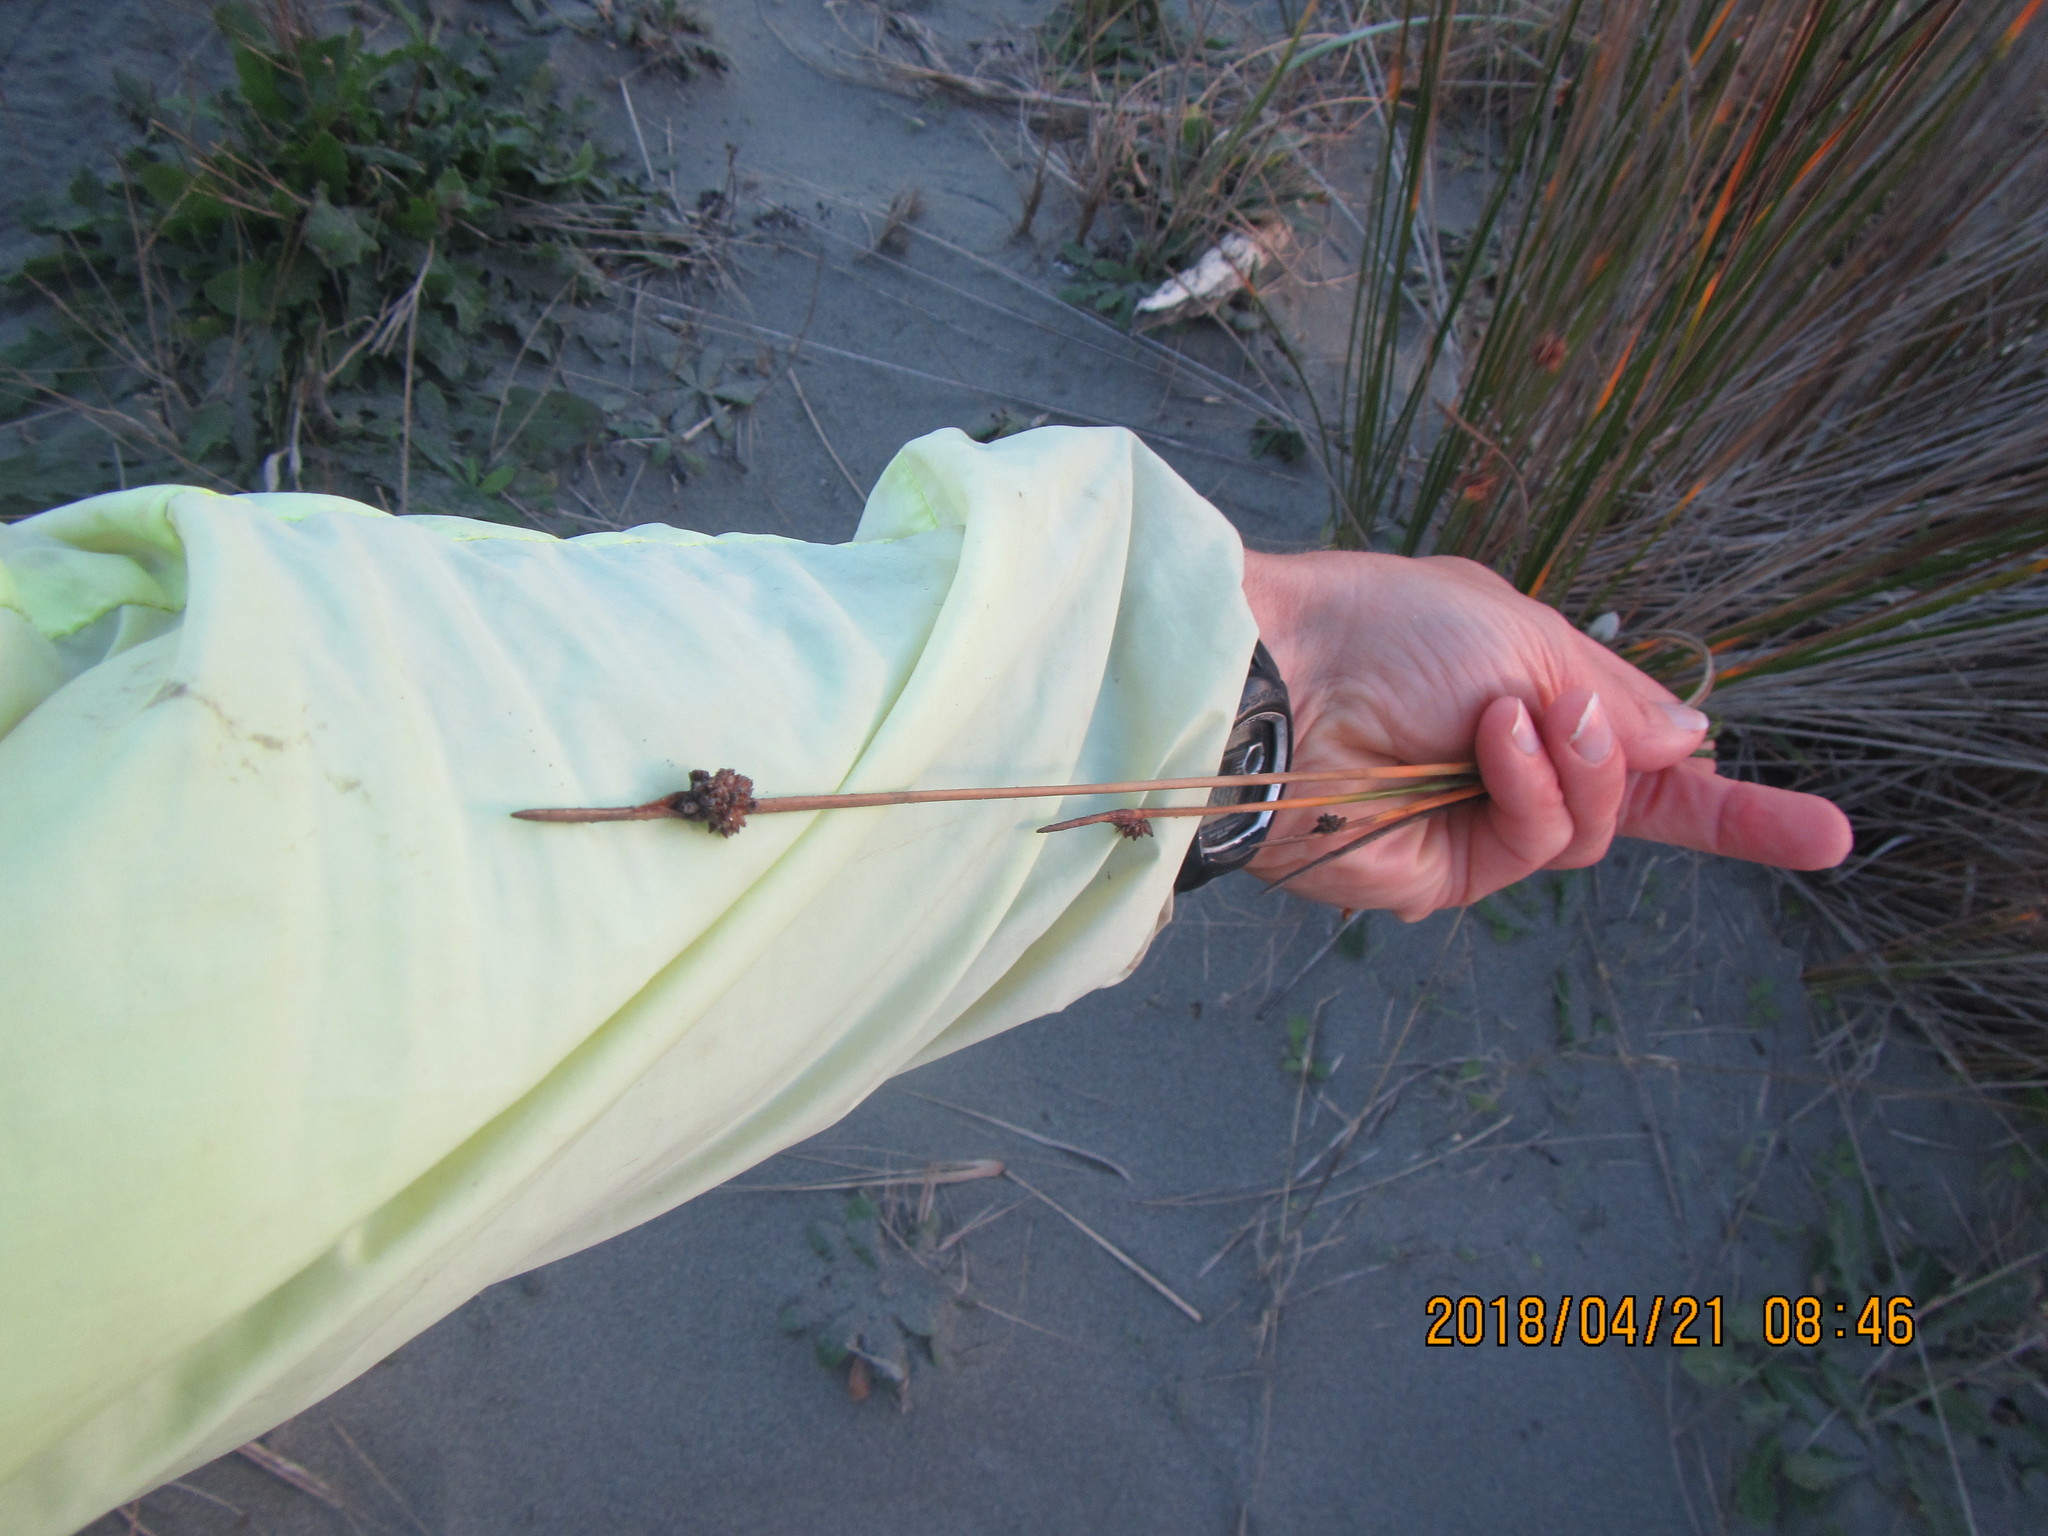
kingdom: Plantae
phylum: Tracheophyta
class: Liliopsida
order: Poales
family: Cyperaceae
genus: Ficinia
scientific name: Ficinia nodosa
